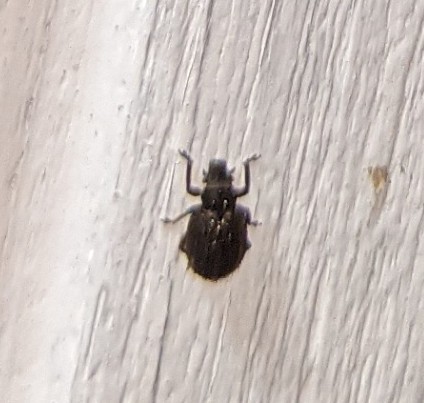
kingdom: Animalia
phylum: Arthropoda
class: Insecta
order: Coleoptera
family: Curculionidae
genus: Strophosoma
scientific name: Strophosoma melanogrammum
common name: Weevil
